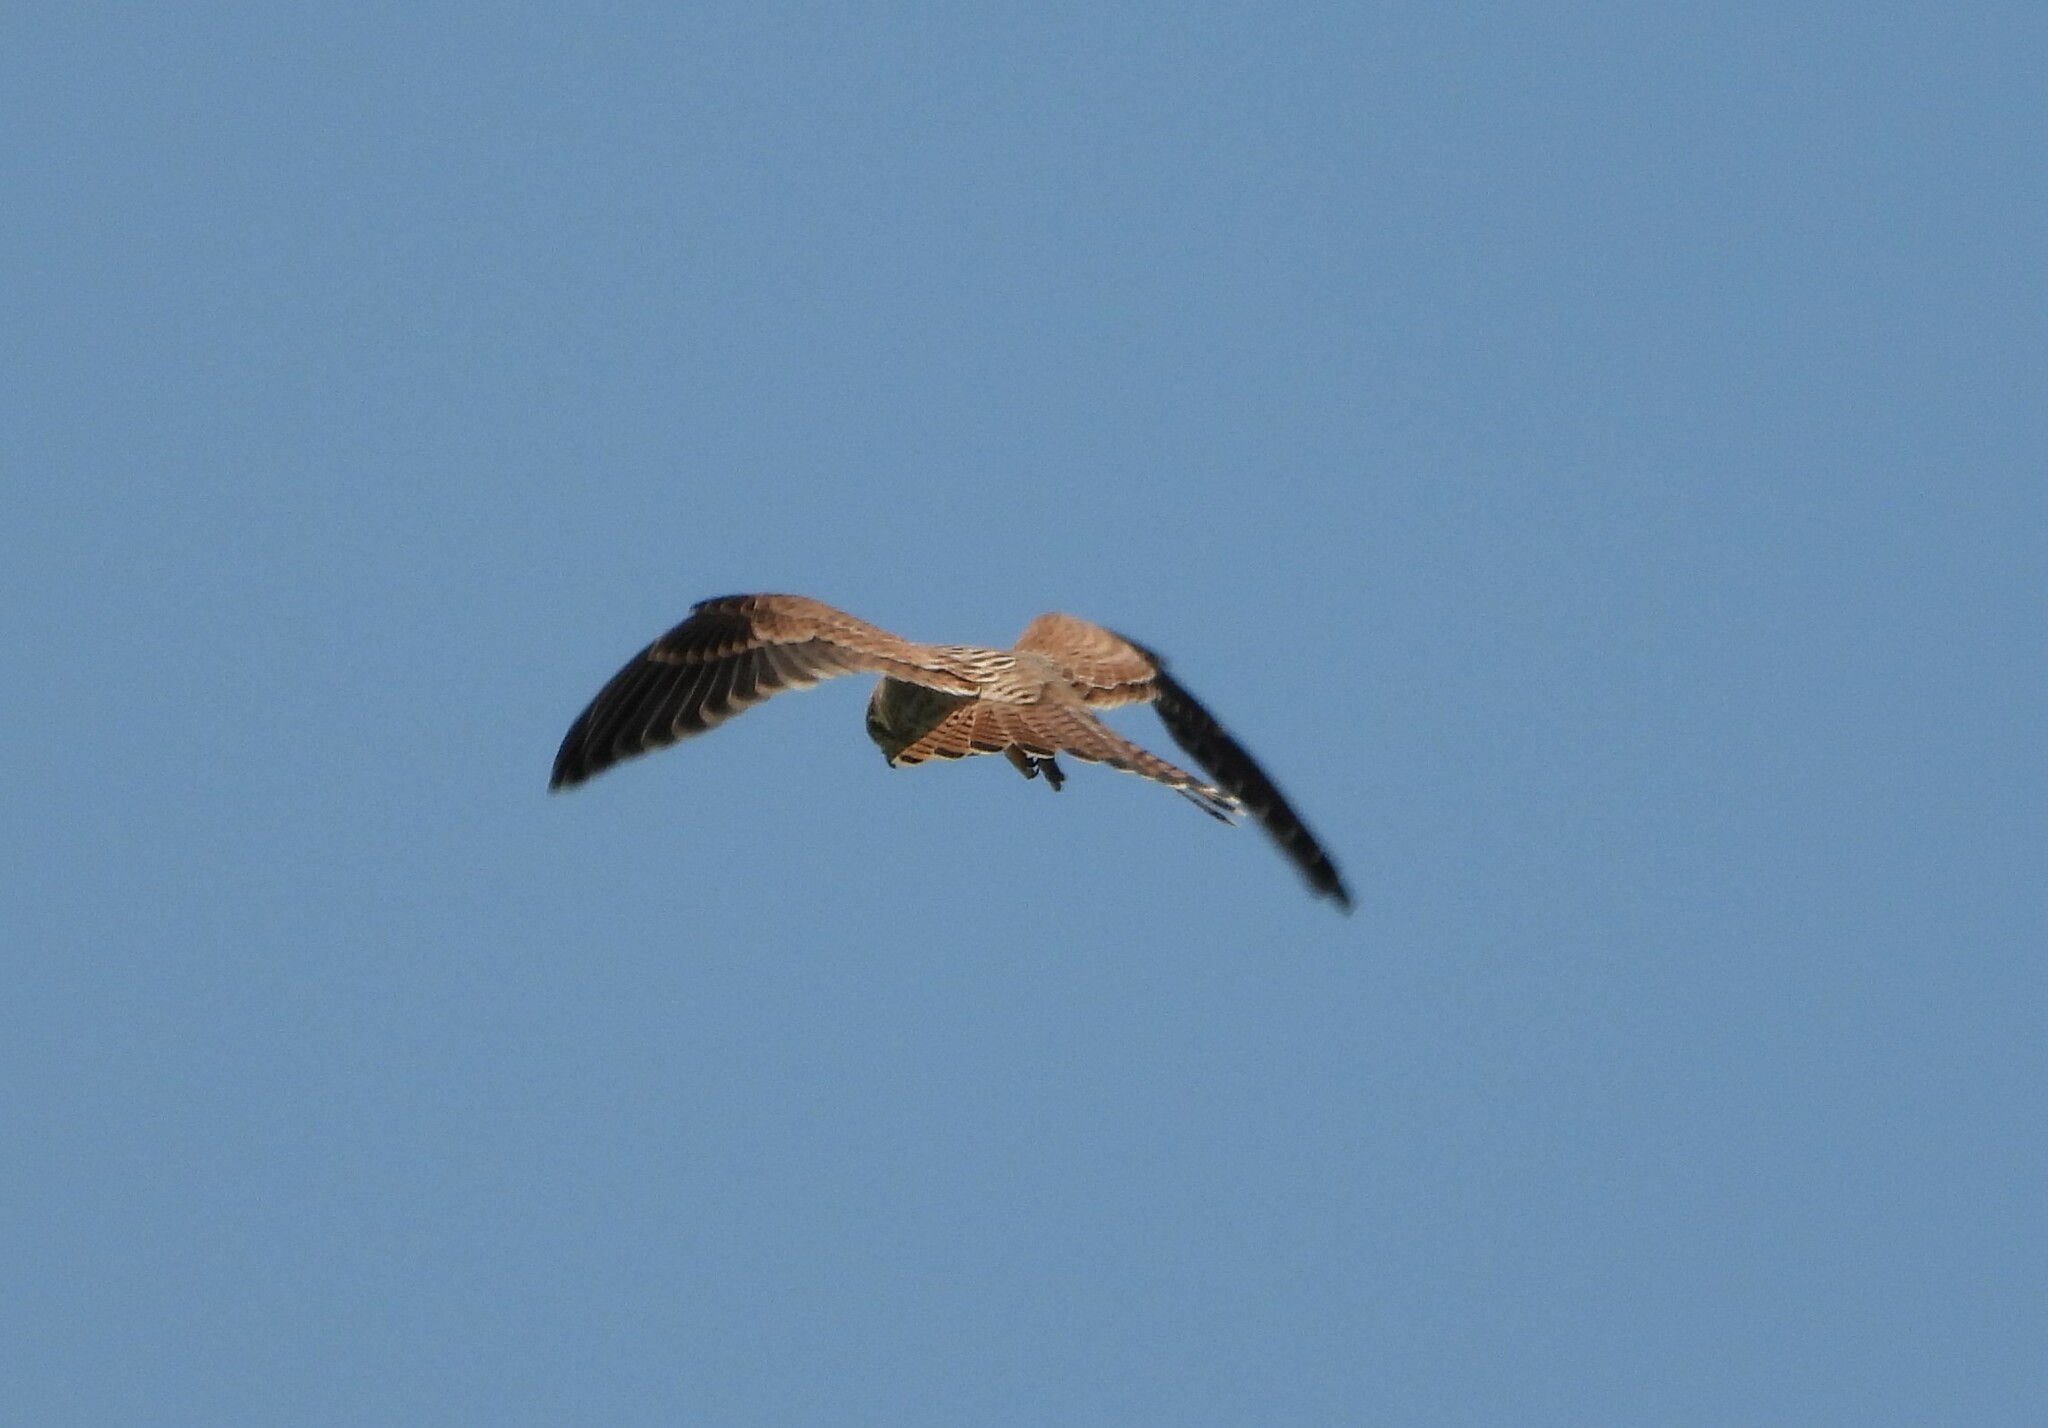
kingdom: Animalia
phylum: Chordata
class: Aves
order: Falconiformes
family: Falconidae
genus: Falco
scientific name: Falco tinnunculus
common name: Common kestrel
